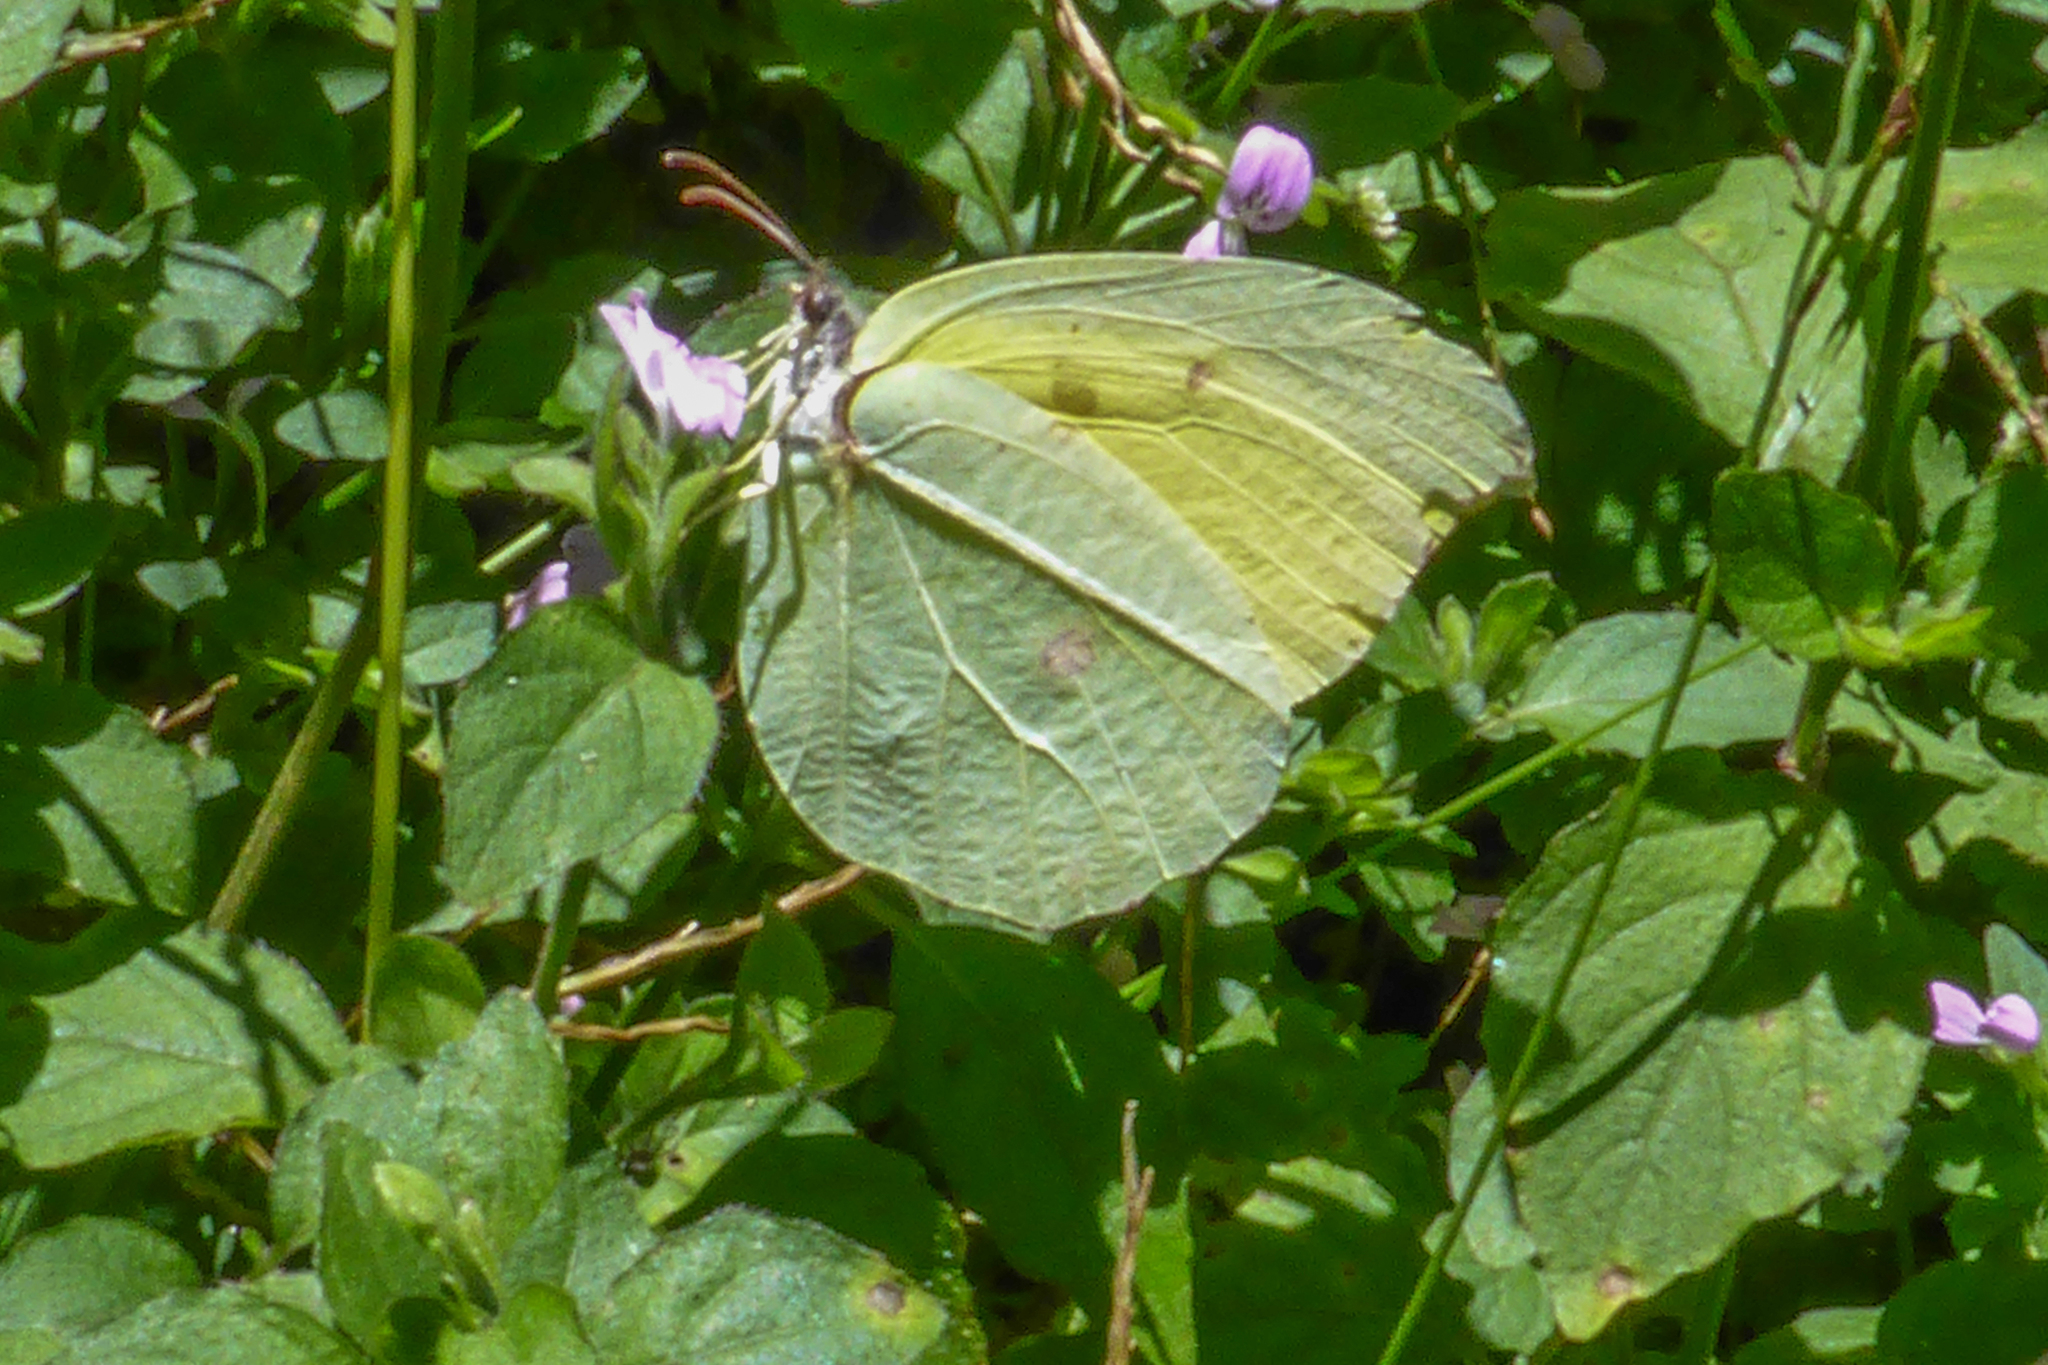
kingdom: Animalia
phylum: Arthropoda
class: Insecta
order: Lepidoptera
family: Pieridae
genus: Gonepteryx
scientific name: Gonepteryx amintha
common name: Orange brimstone
